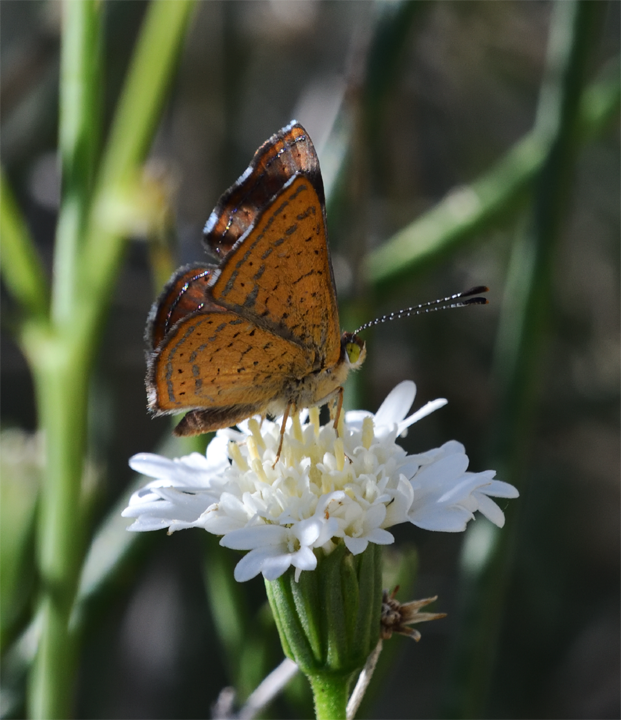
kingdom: Animalia
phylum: Arthropoda
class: Insecta
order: Lepidoptera
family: Lycaenidae
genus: Emesis
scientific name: Emesis wrighti
